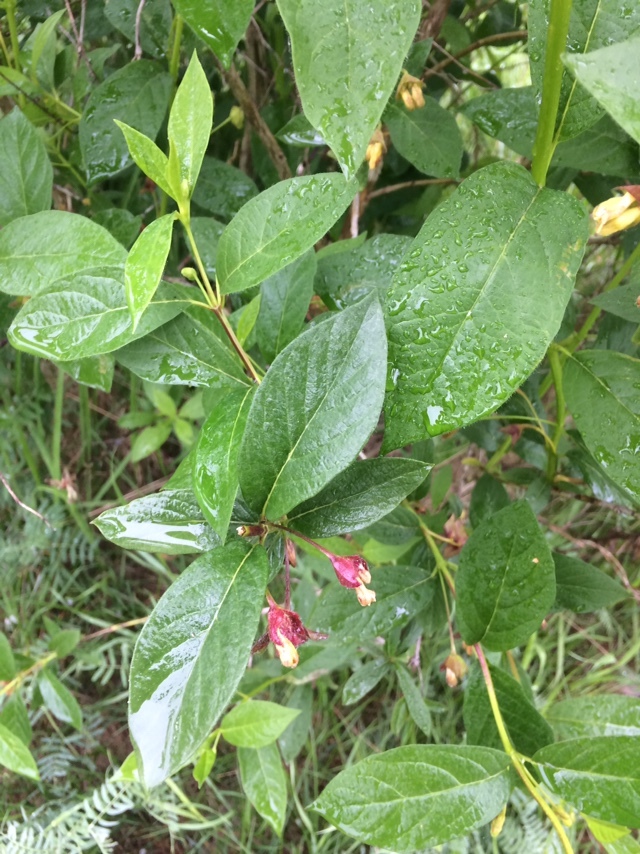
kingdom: Plantae
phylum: Tracheophyta
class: Magnoliopsida
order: Dipsacales
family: Caprifoliaceae
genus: Lonicera
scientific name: Lonicera involucrata
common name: Californian honeysuckle
